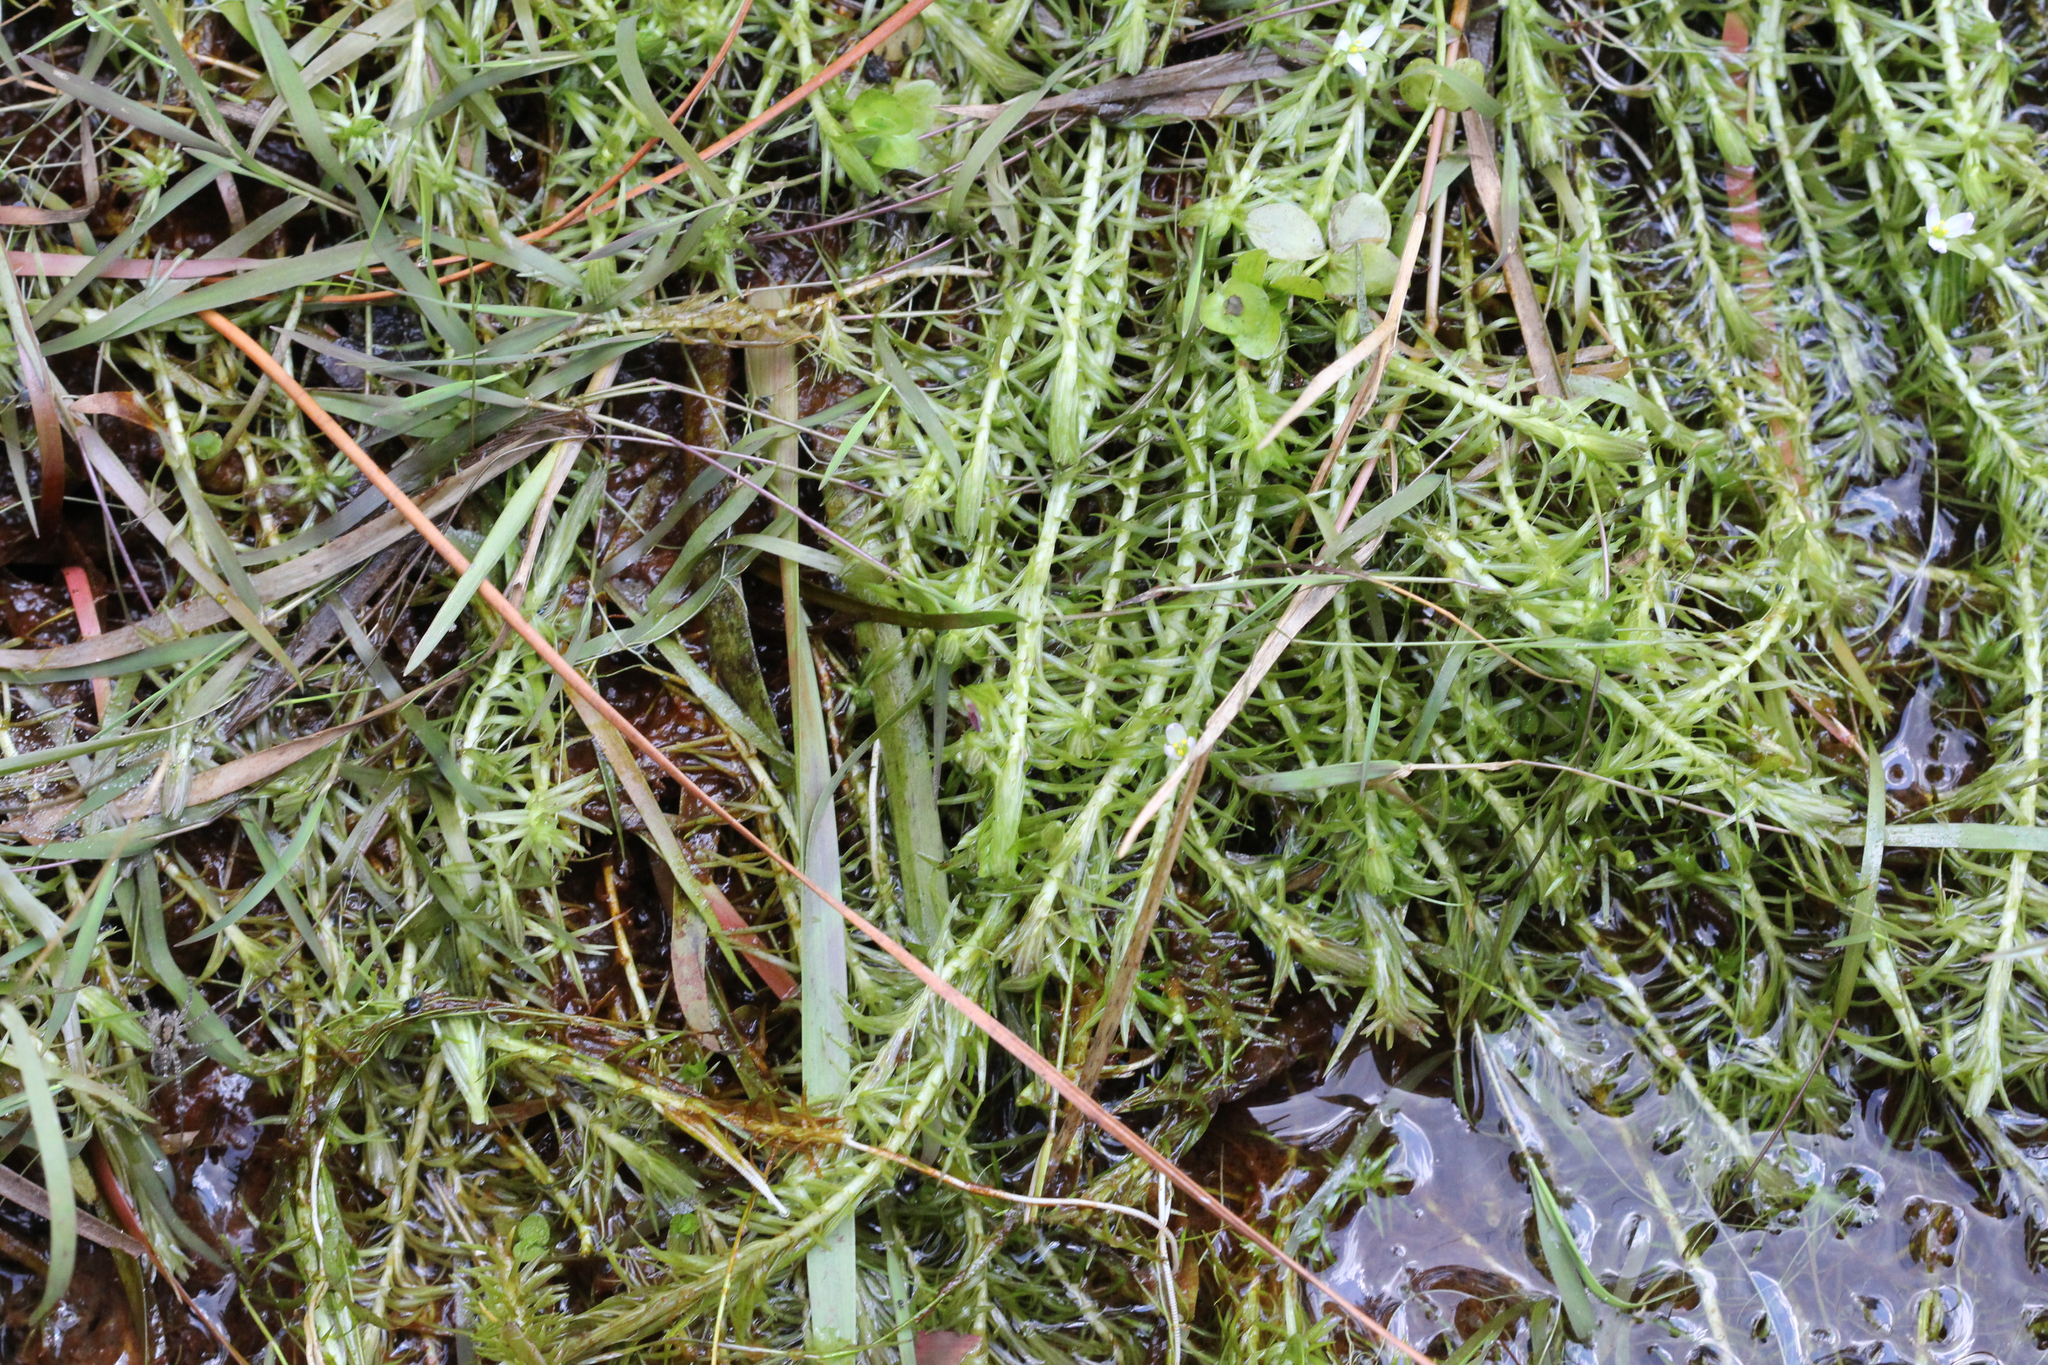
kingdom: Plantae
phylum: Tracheophyta
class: Liliopsida
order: Poales
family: Mayacaceae
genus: Mayaca
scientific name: Mayaca fluviatilis
